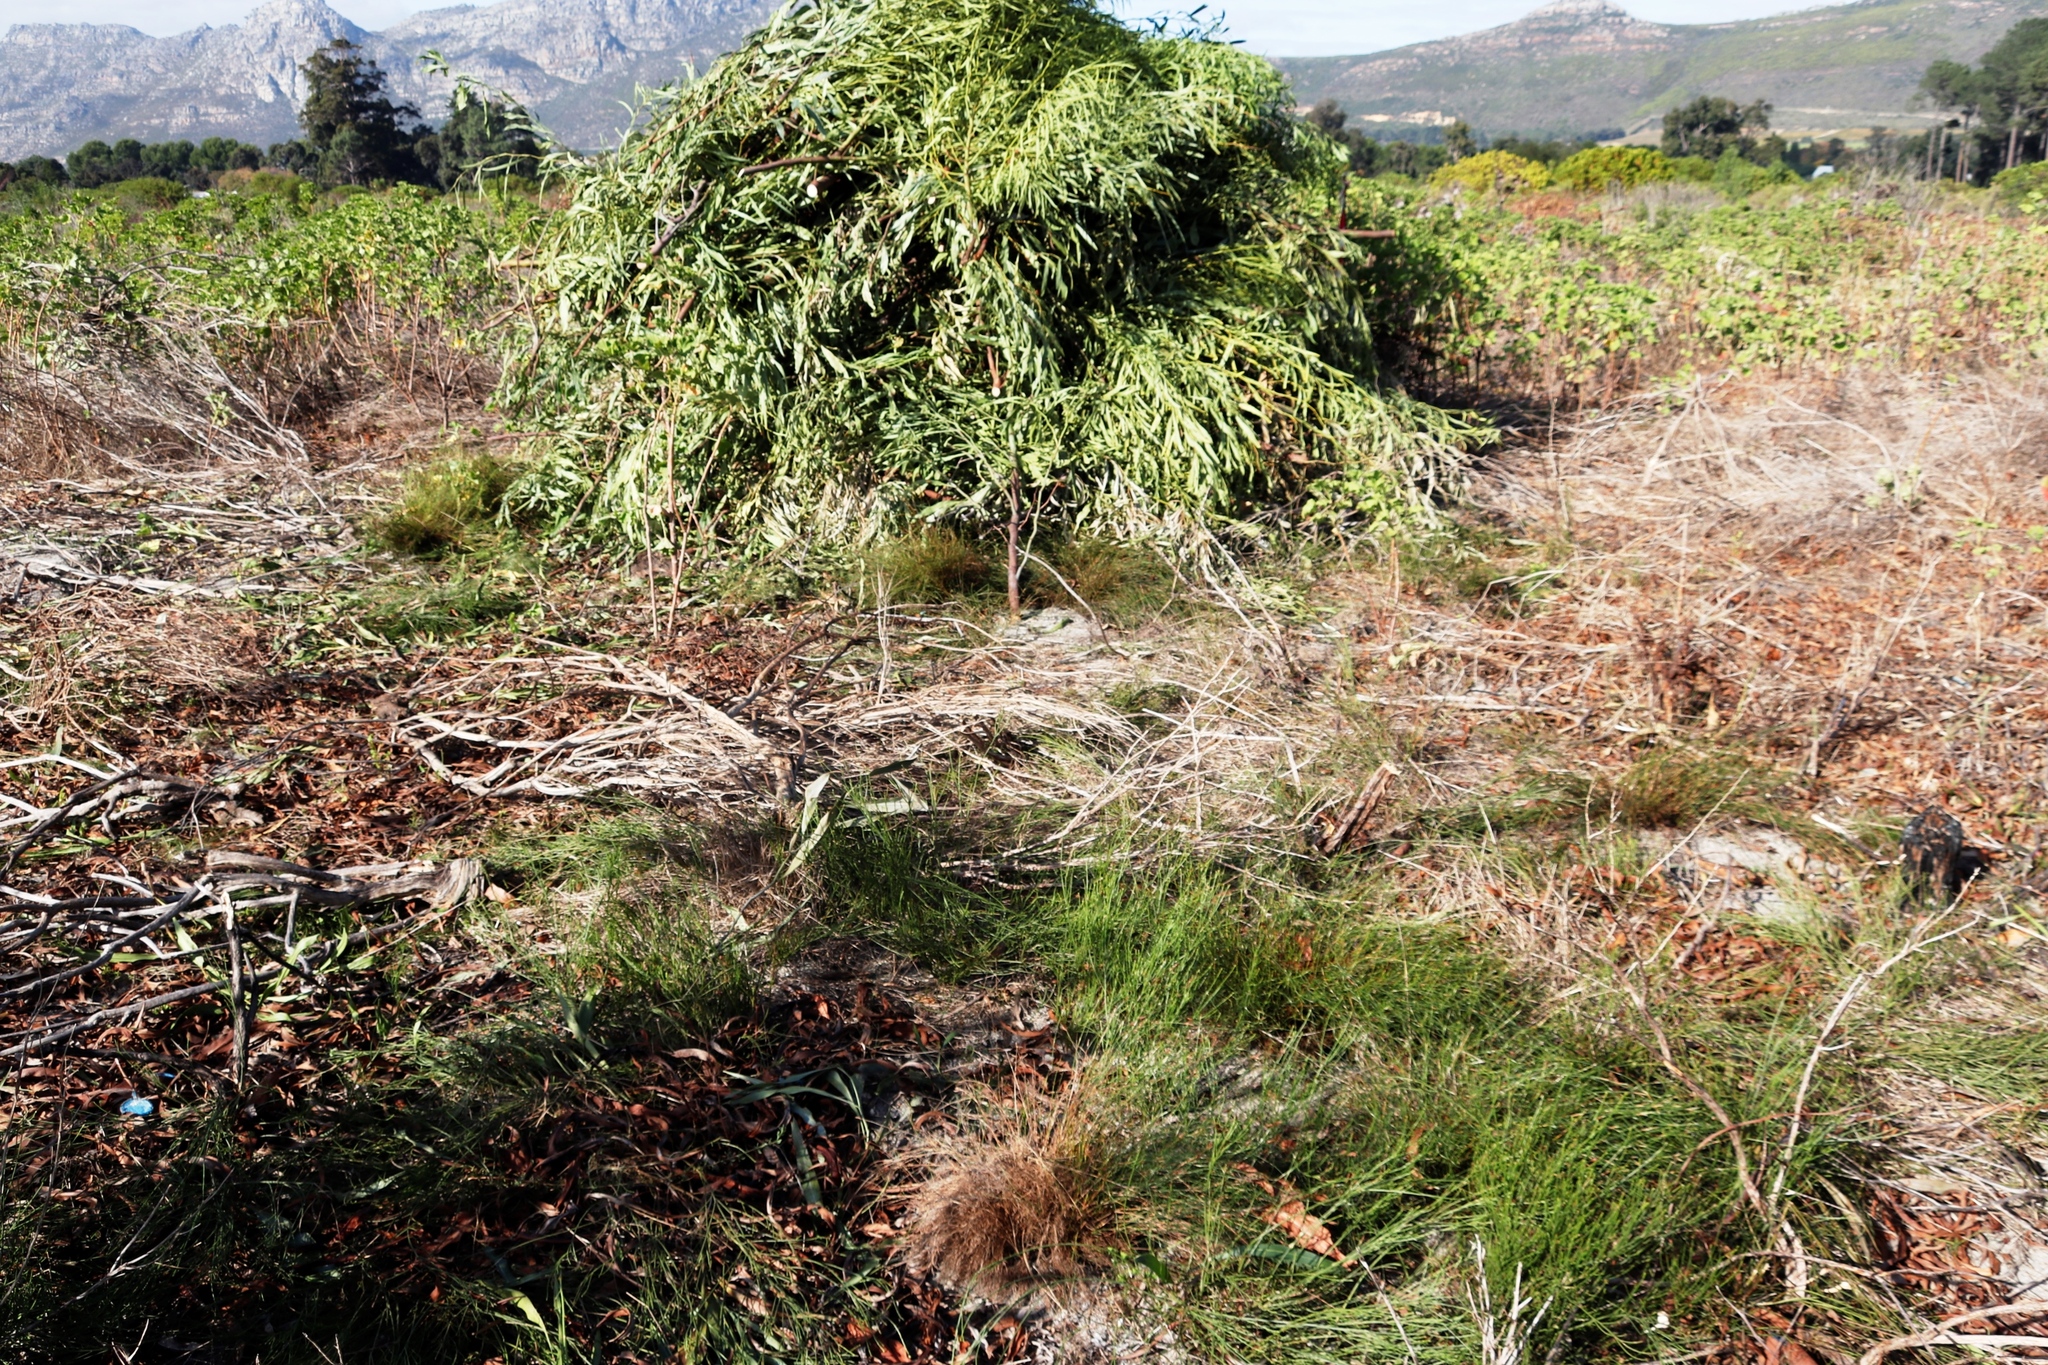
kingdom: Plantae
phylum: Tracheophyta
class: Magnoliopsida
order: Fabales
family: Fabaceae
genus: Acacia
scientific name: Acacia saligna
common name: Orange wattle
